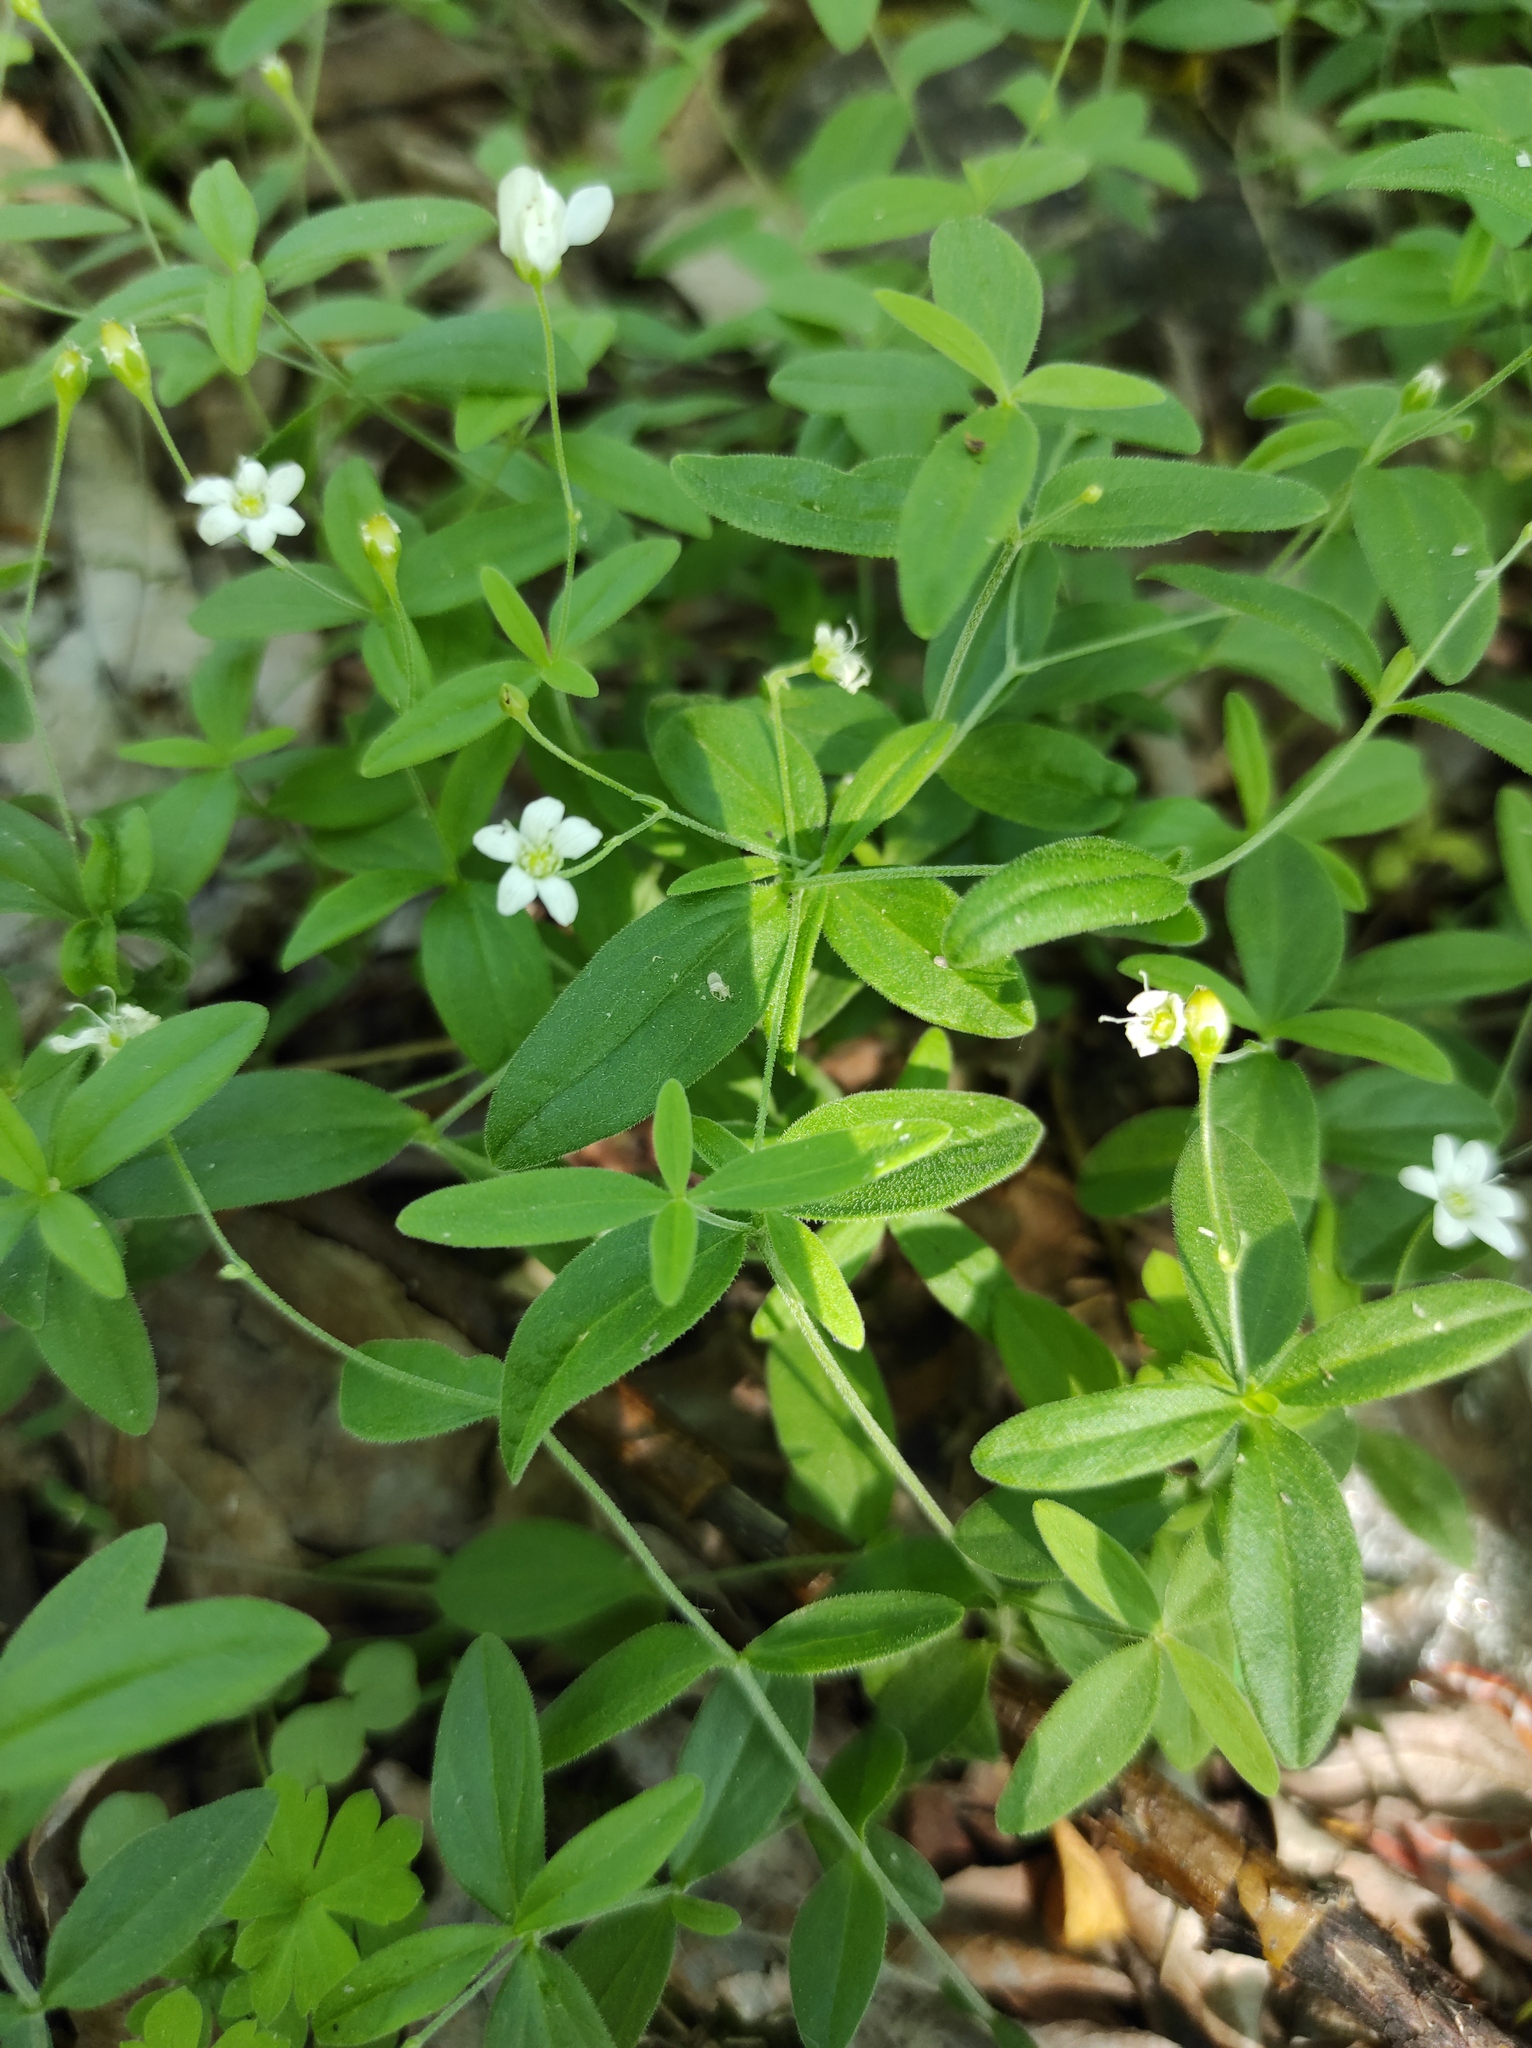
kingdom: Plantae
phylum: Tracheophyta
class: Magnoliopsida
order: Caryophyllales
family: Caryophyllaceae
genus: Moehringia
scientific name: Moehringia lateriflora
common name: Blunt-leaved sandwort
